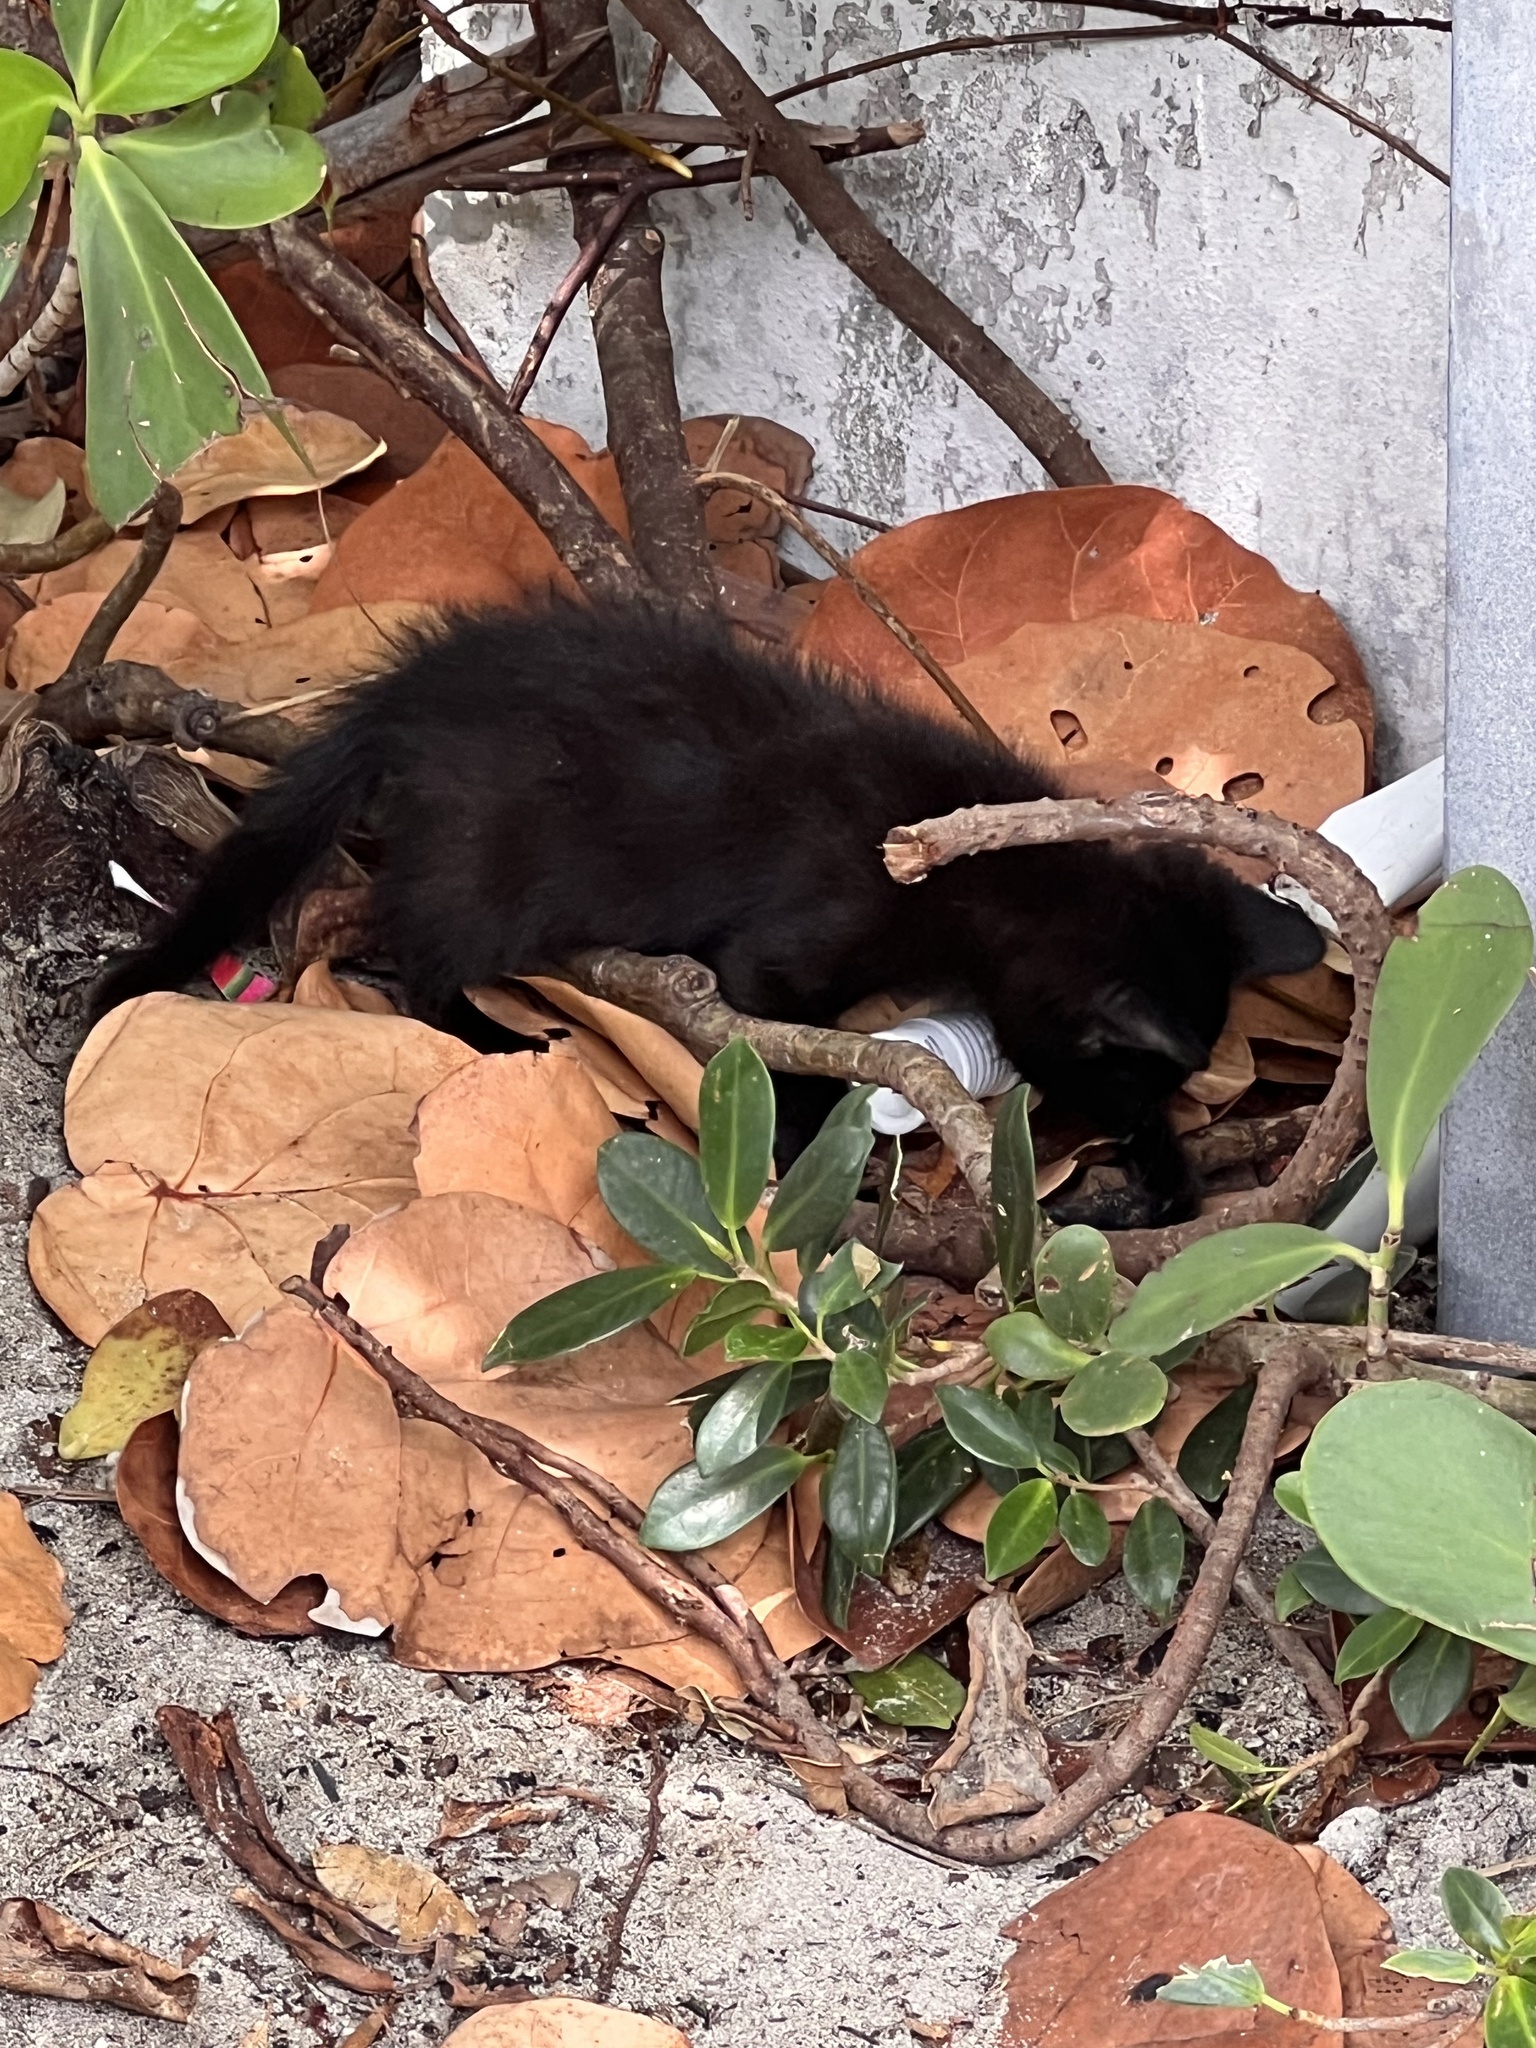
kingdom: Animalia
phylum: Chordata
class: Mammalia
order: Carnivora
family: Felidae
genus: Felis
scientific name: Felis catus
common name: Domestic cat
